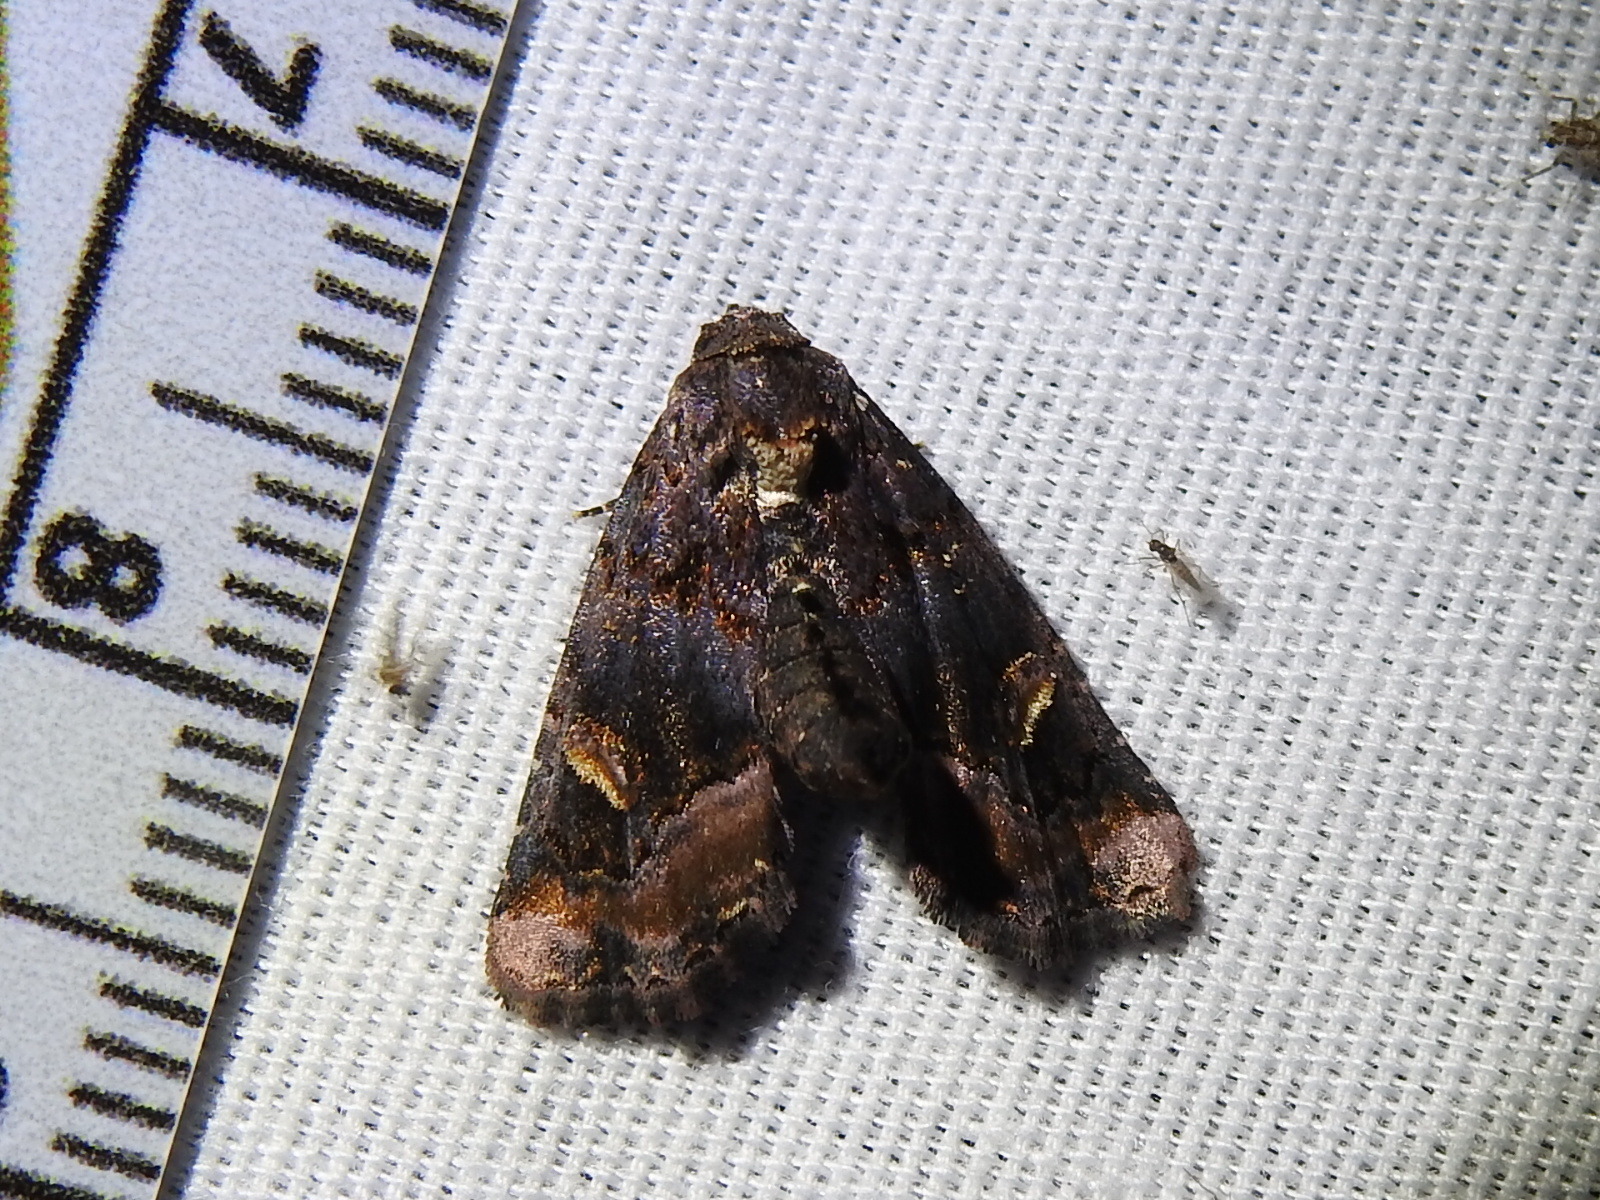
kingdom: Animalia
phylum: Arthropoda
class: Insecta
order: Lepidoptera
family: Noctuidae
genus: Homophoberia
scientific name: Homophoberia apicosa
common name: Black wedge-spot
